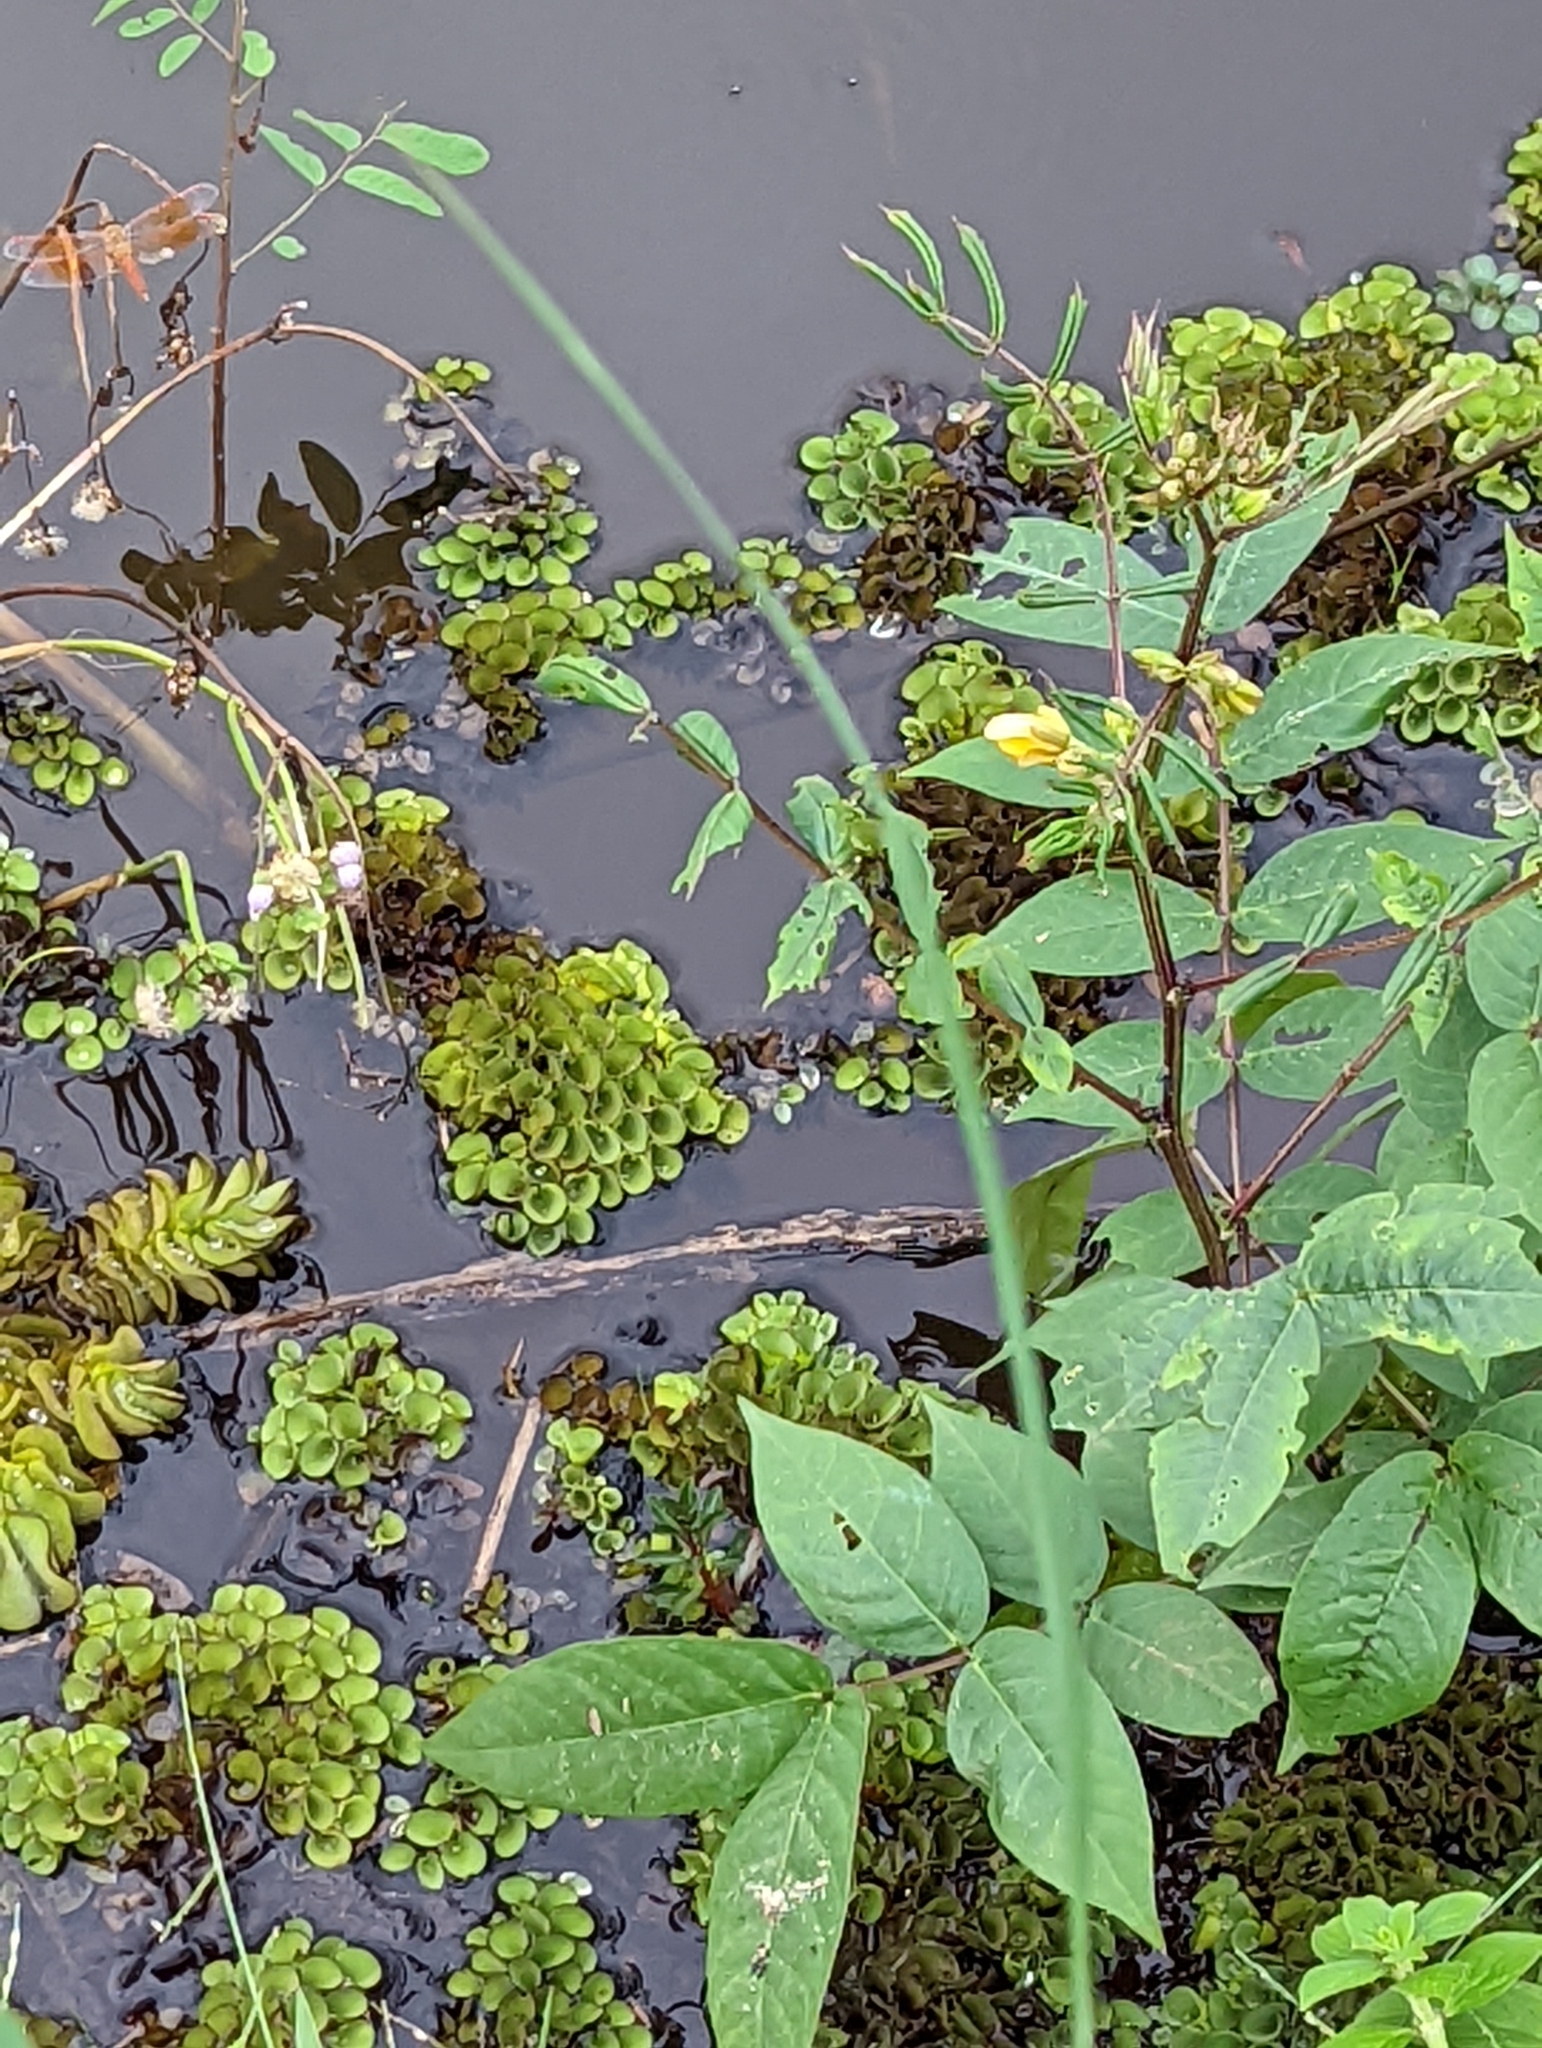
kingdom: Plantae
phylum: Tracheophyta
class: Polypodiopsida
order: Salviniales
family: Salviniaceae
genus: Salvinia
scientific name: Salvinia cucullata
